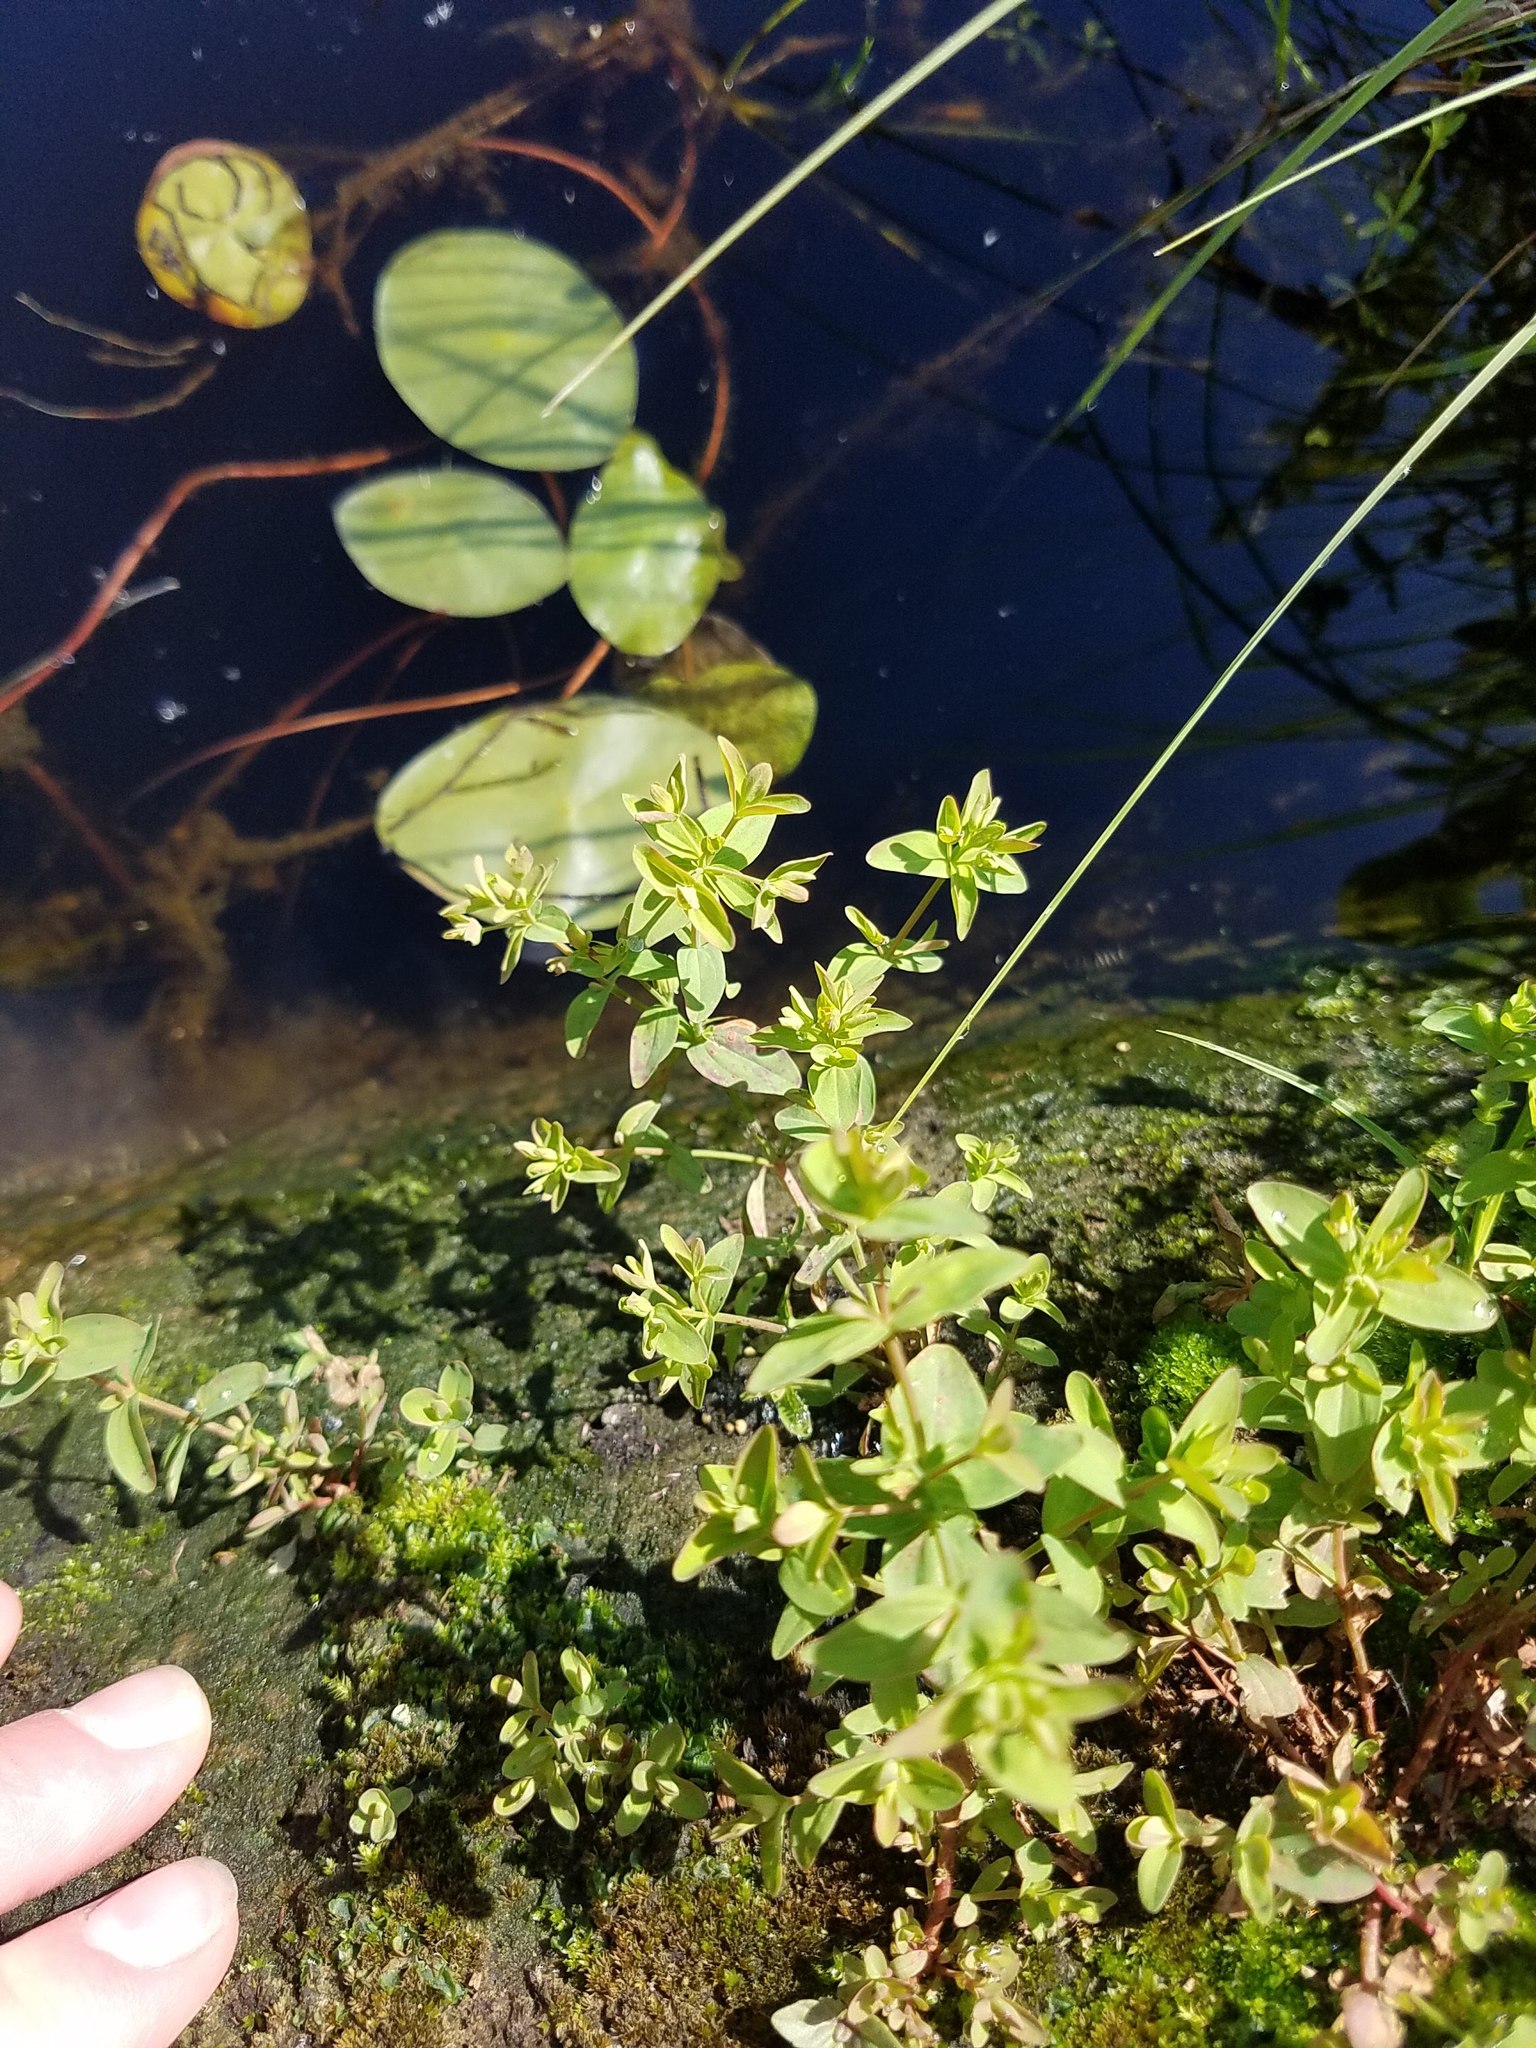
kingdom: Plantae
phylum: Tracheophyta
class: Magnoliopsida
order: Malpighiales
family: Hypericaceae
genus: Hypericum
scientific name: Hypericum boreale
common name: Northern bog st. john's-wort
